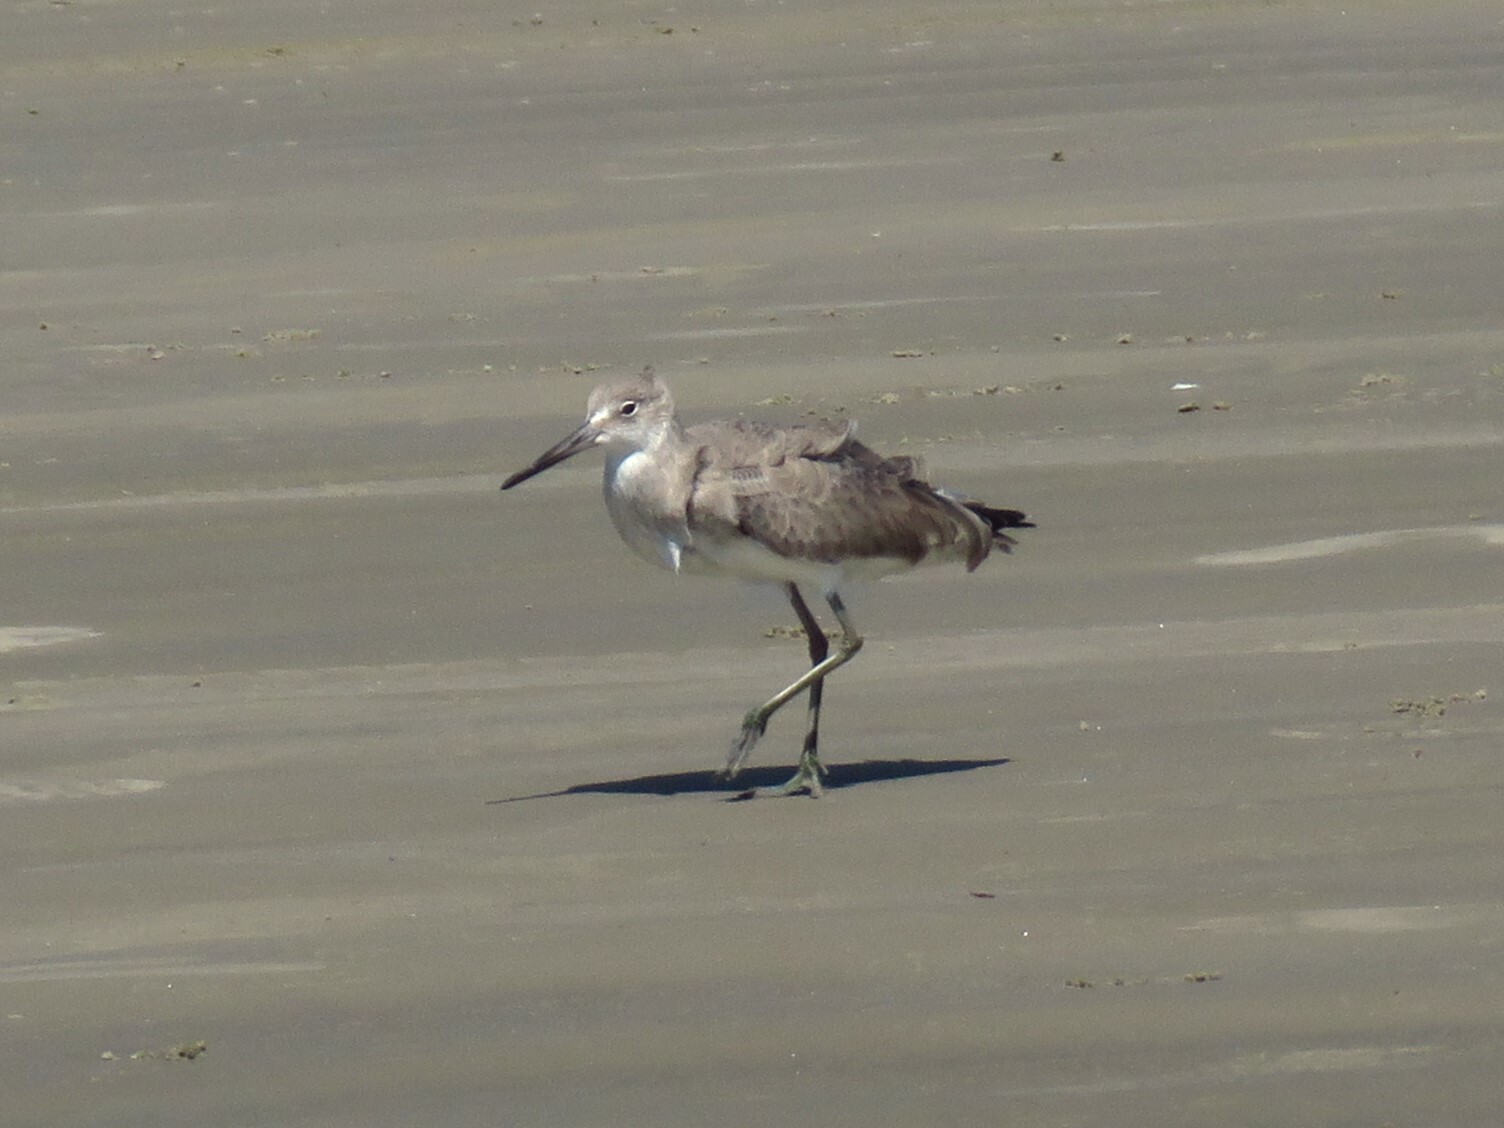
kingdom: Animalia
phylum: Chordata
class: Aves
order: Charadriiformes
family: Scolopacidae
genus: Tringa
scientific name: Tringa semipalmata
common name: Willet
